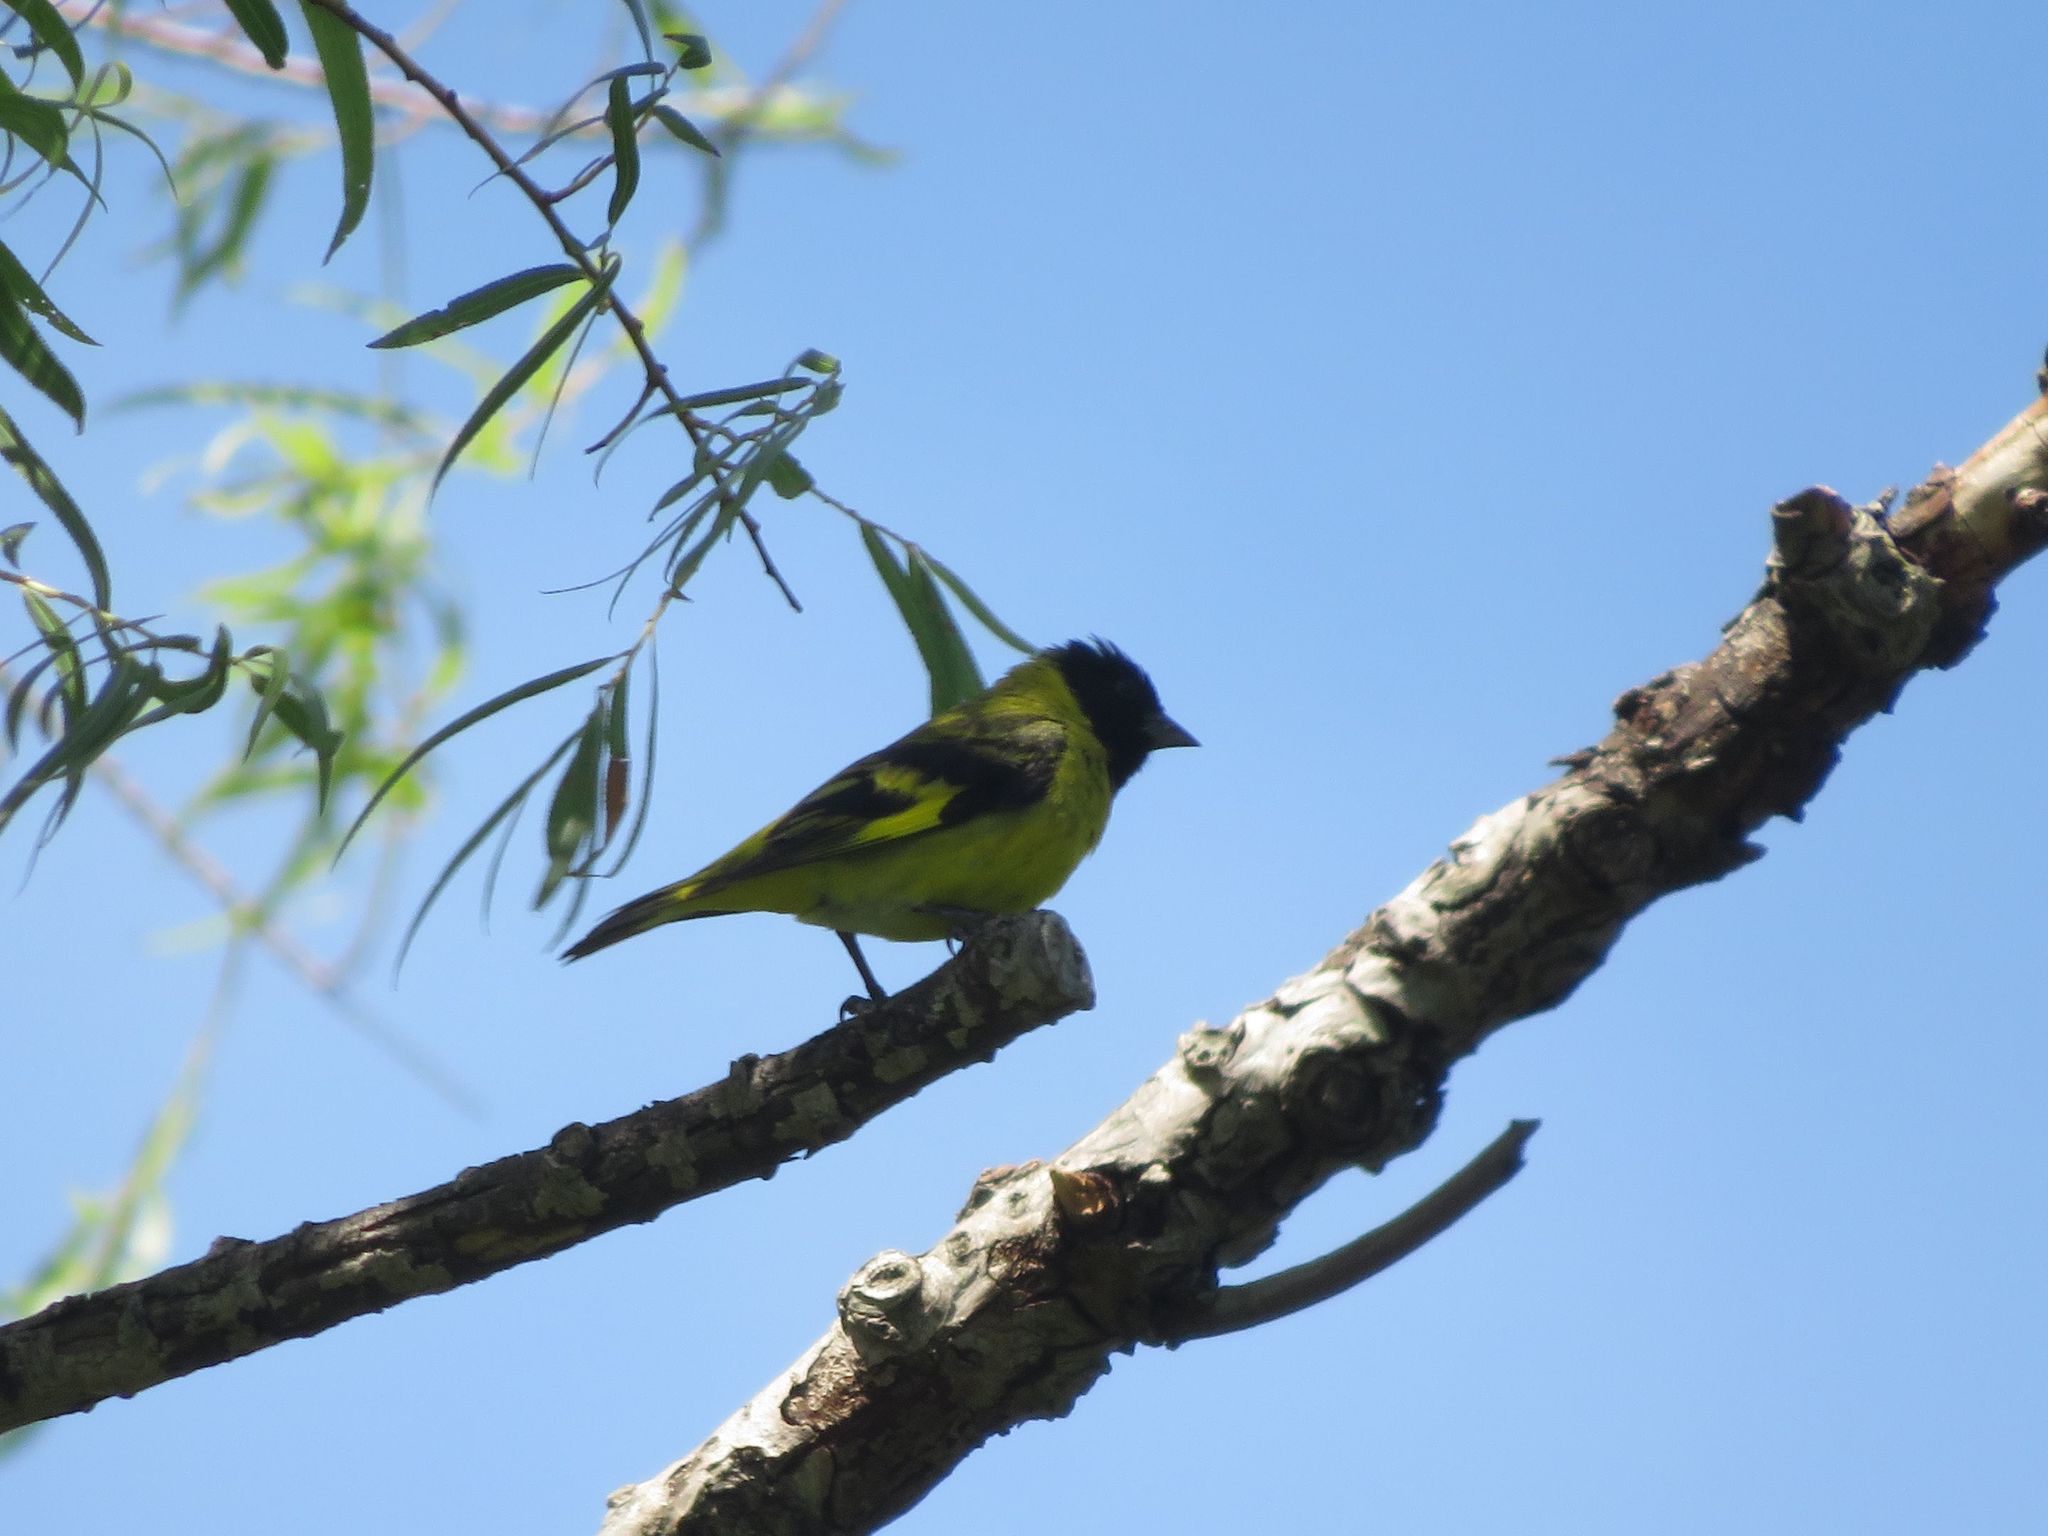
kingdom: Animalia
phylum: Chordata
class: Aves
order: Passeriformes
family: Fringillidae
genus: Spinus
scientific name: Spinus magellanicus
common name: Hooded siskin
